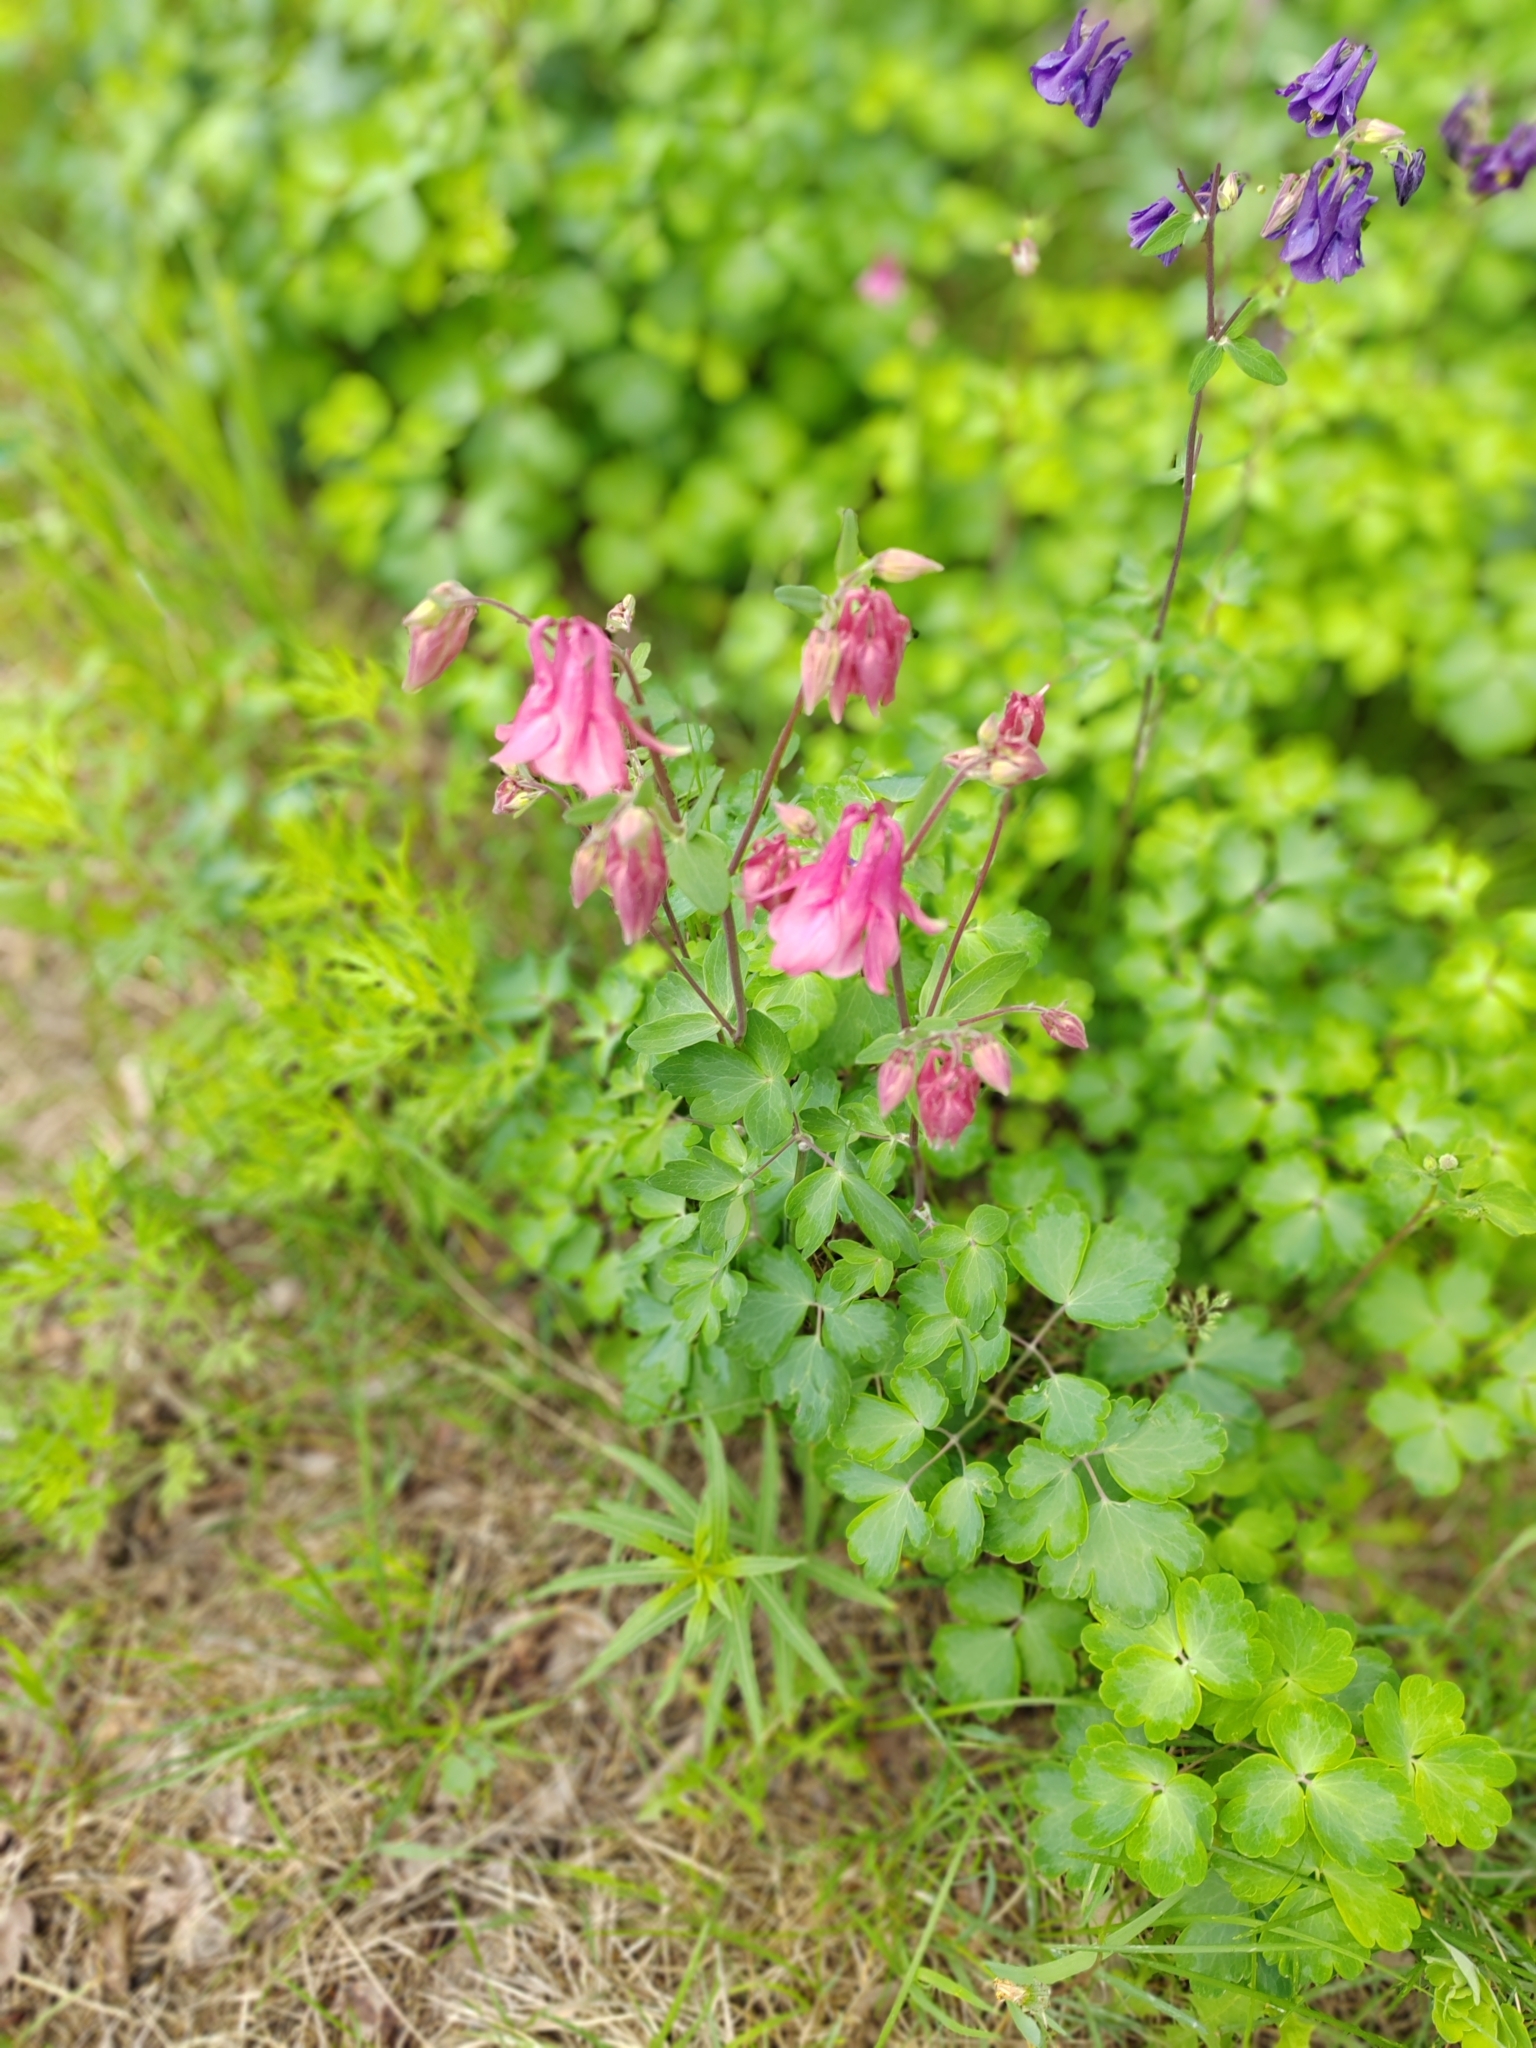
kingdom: Plantae
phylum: Tracheophyta
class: Magnoliopsida
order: Ranunculales
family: Ranunculaceae
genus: Aquilegia
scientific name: Aquilegia vulgaris
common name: Columbine
